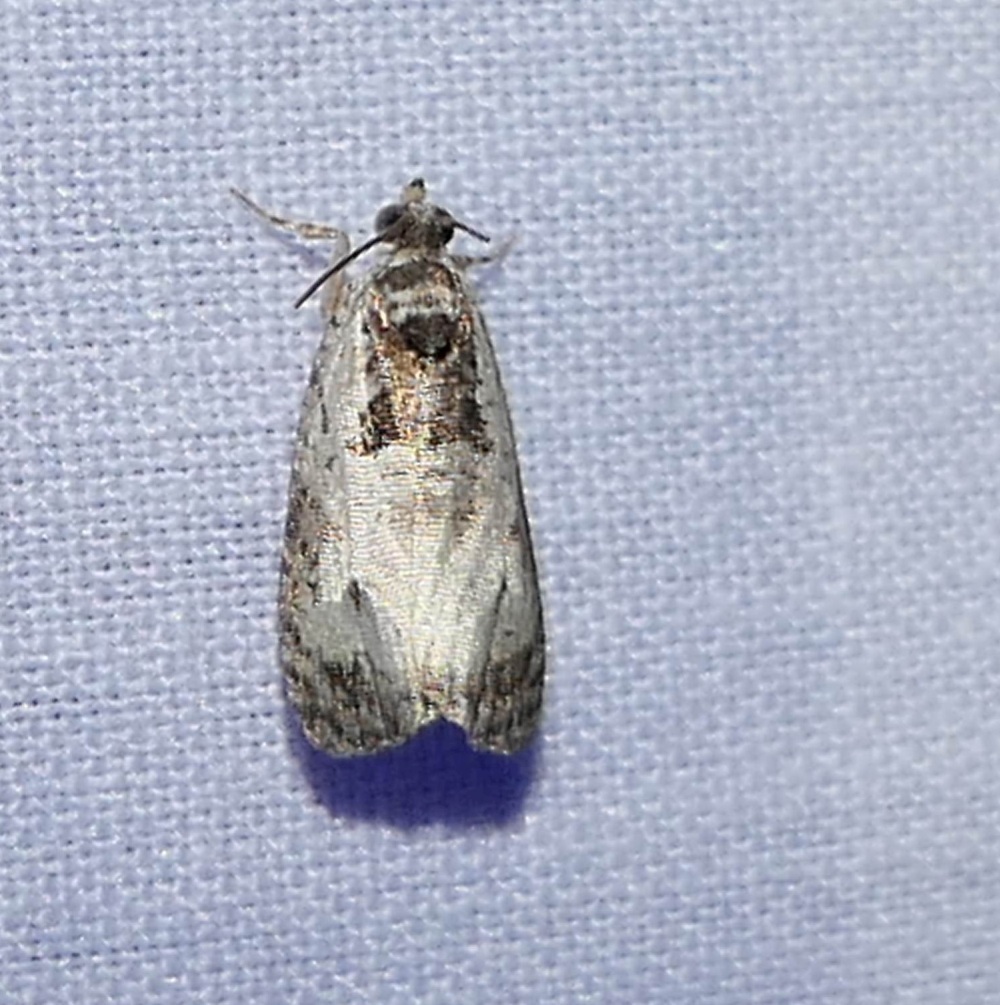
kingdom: Animalia
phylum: Arthropoda
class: Insecta
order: Lepidoptera
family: Tortricidae
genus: Olethreutes
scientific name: Olethreutes malana
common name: Malana leafroller moth
